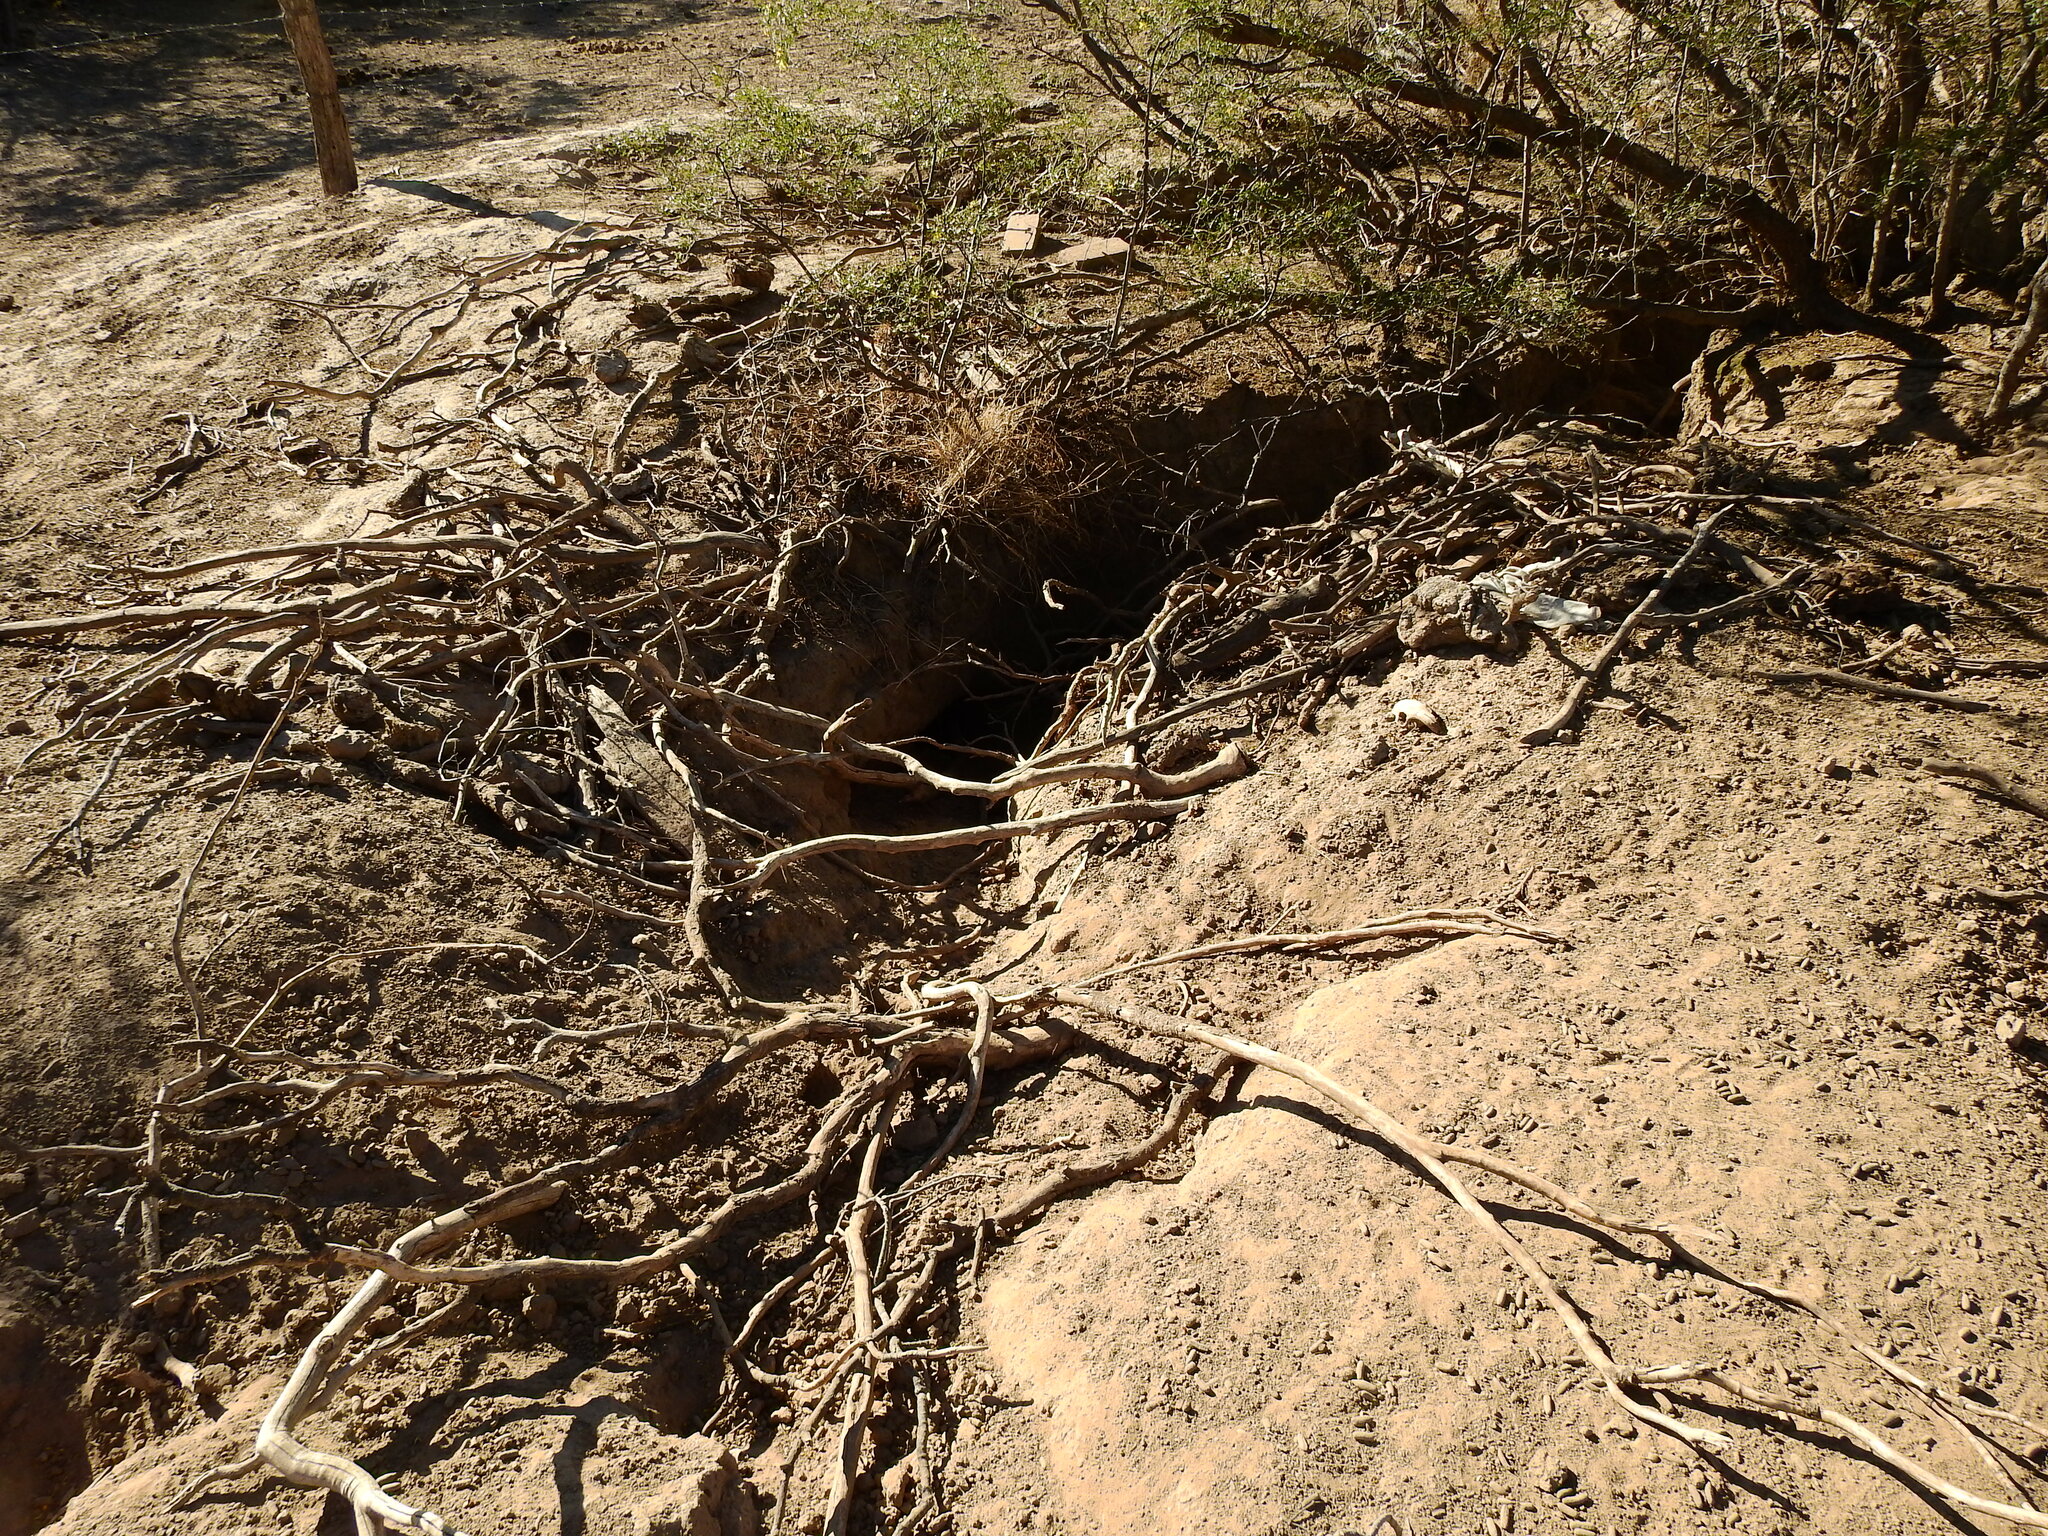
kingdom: Animalia
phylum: Chordata
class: Mammalia
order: Rodentia
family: Chinchillidae
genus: Lagostomus
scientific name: Lagostomus maximus
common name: Plains viscacha
